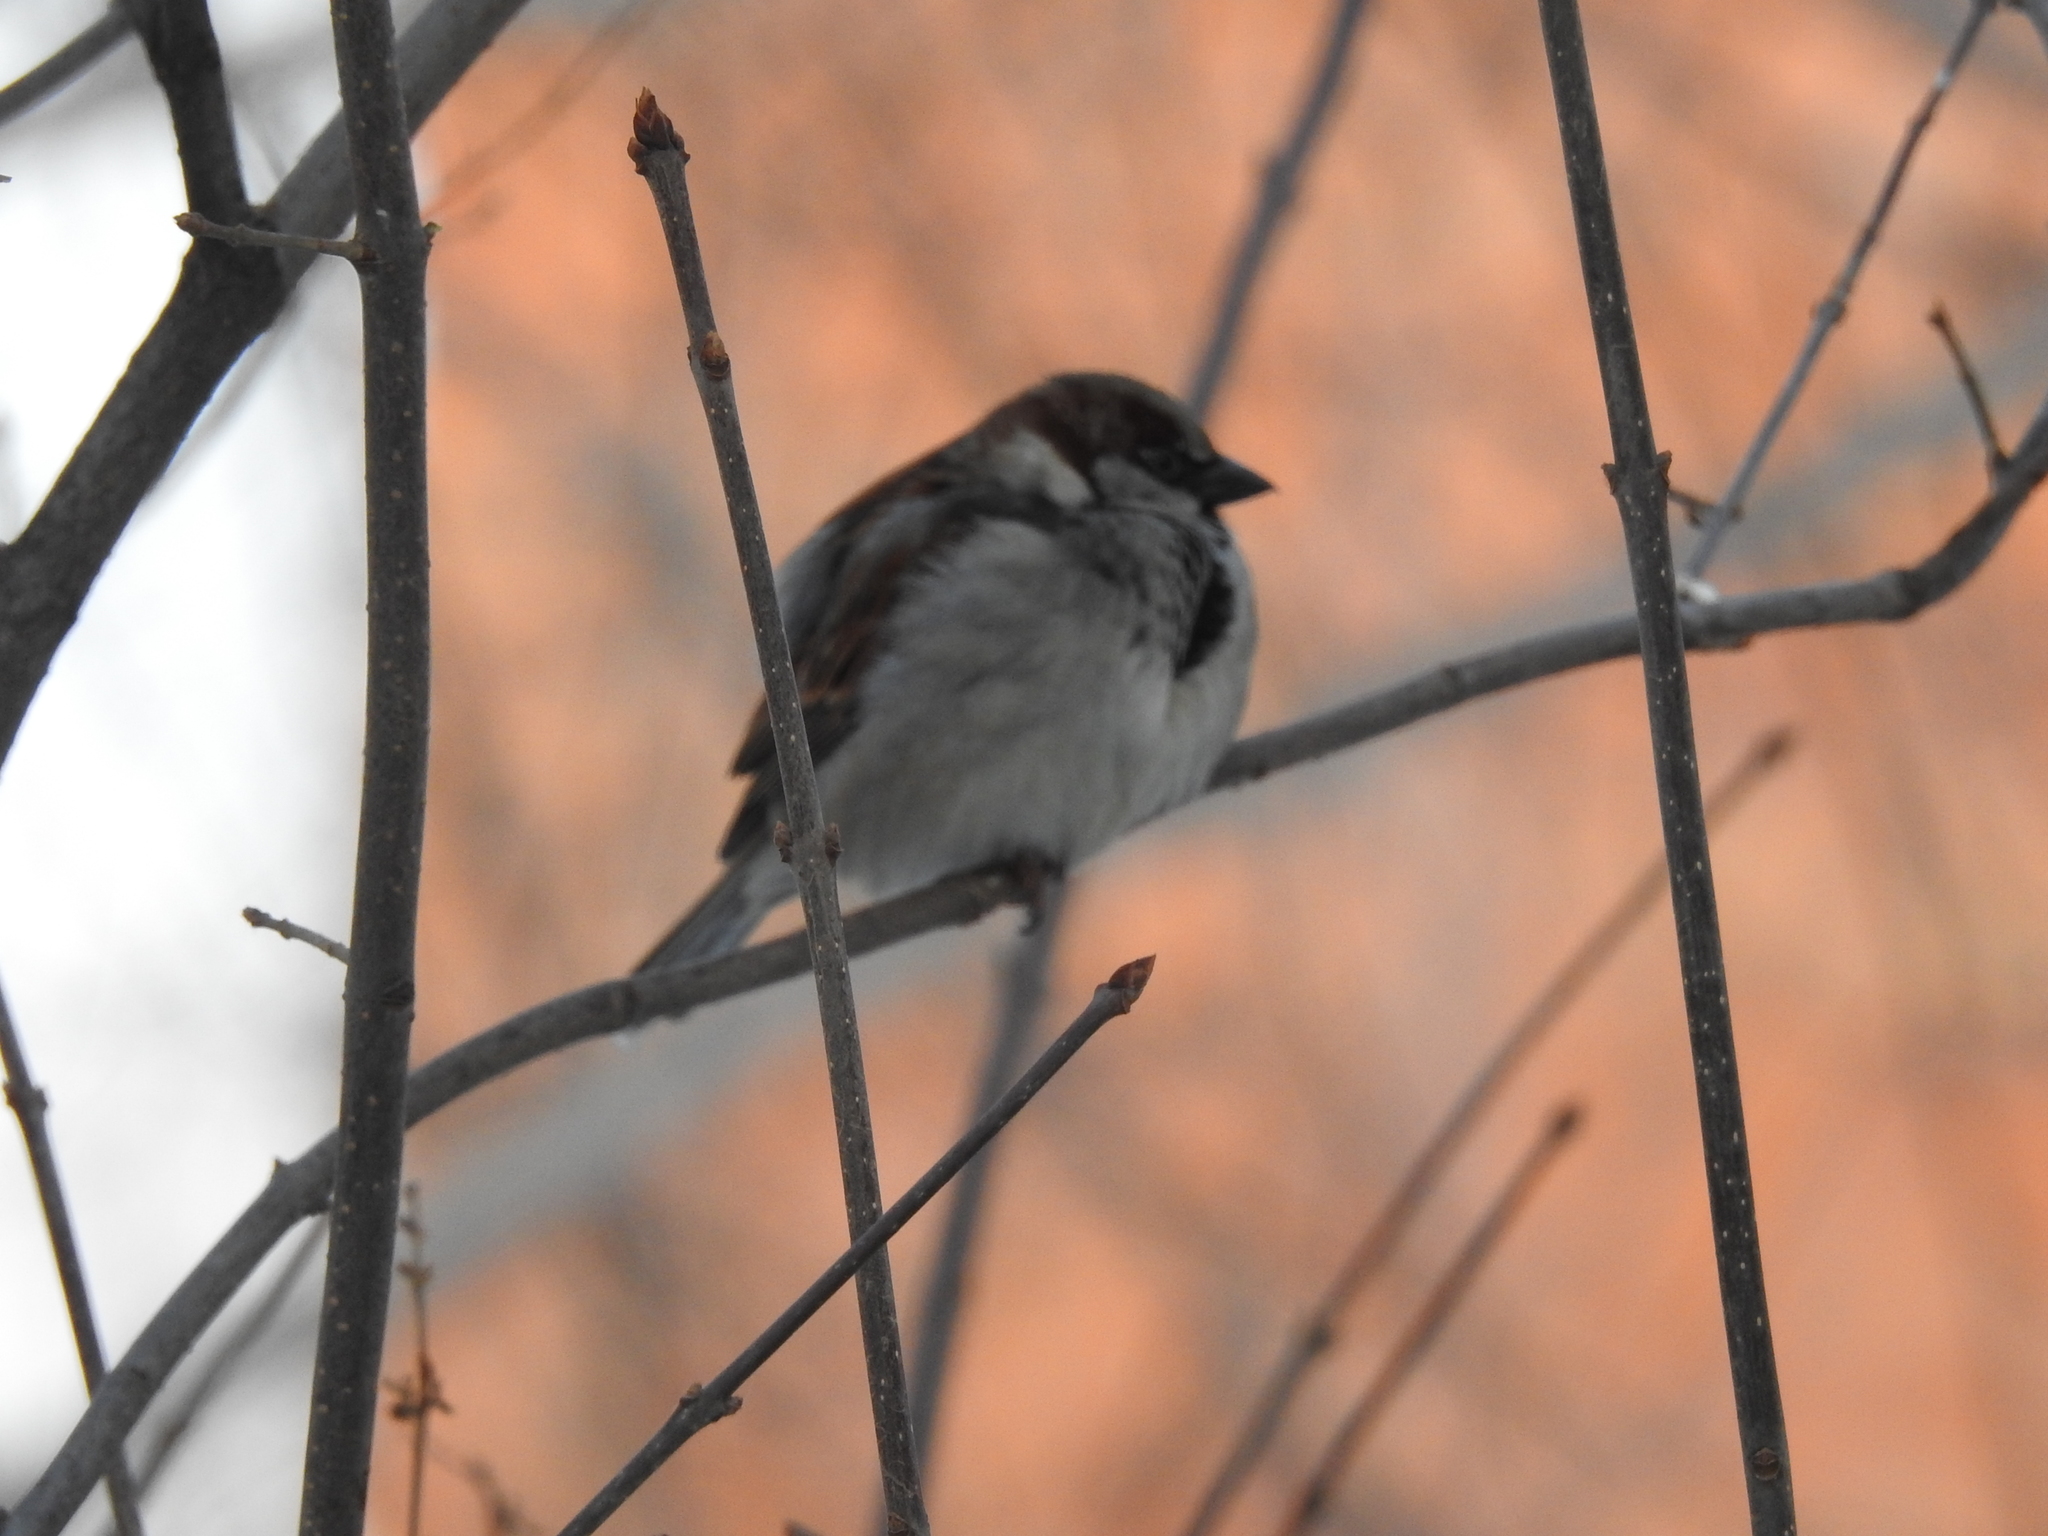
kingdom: Animalia
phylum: Chordata
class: Aves
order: Passeriformes
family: Passeridae
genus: Passer
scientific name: Passer domesticus
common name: House sparrow
